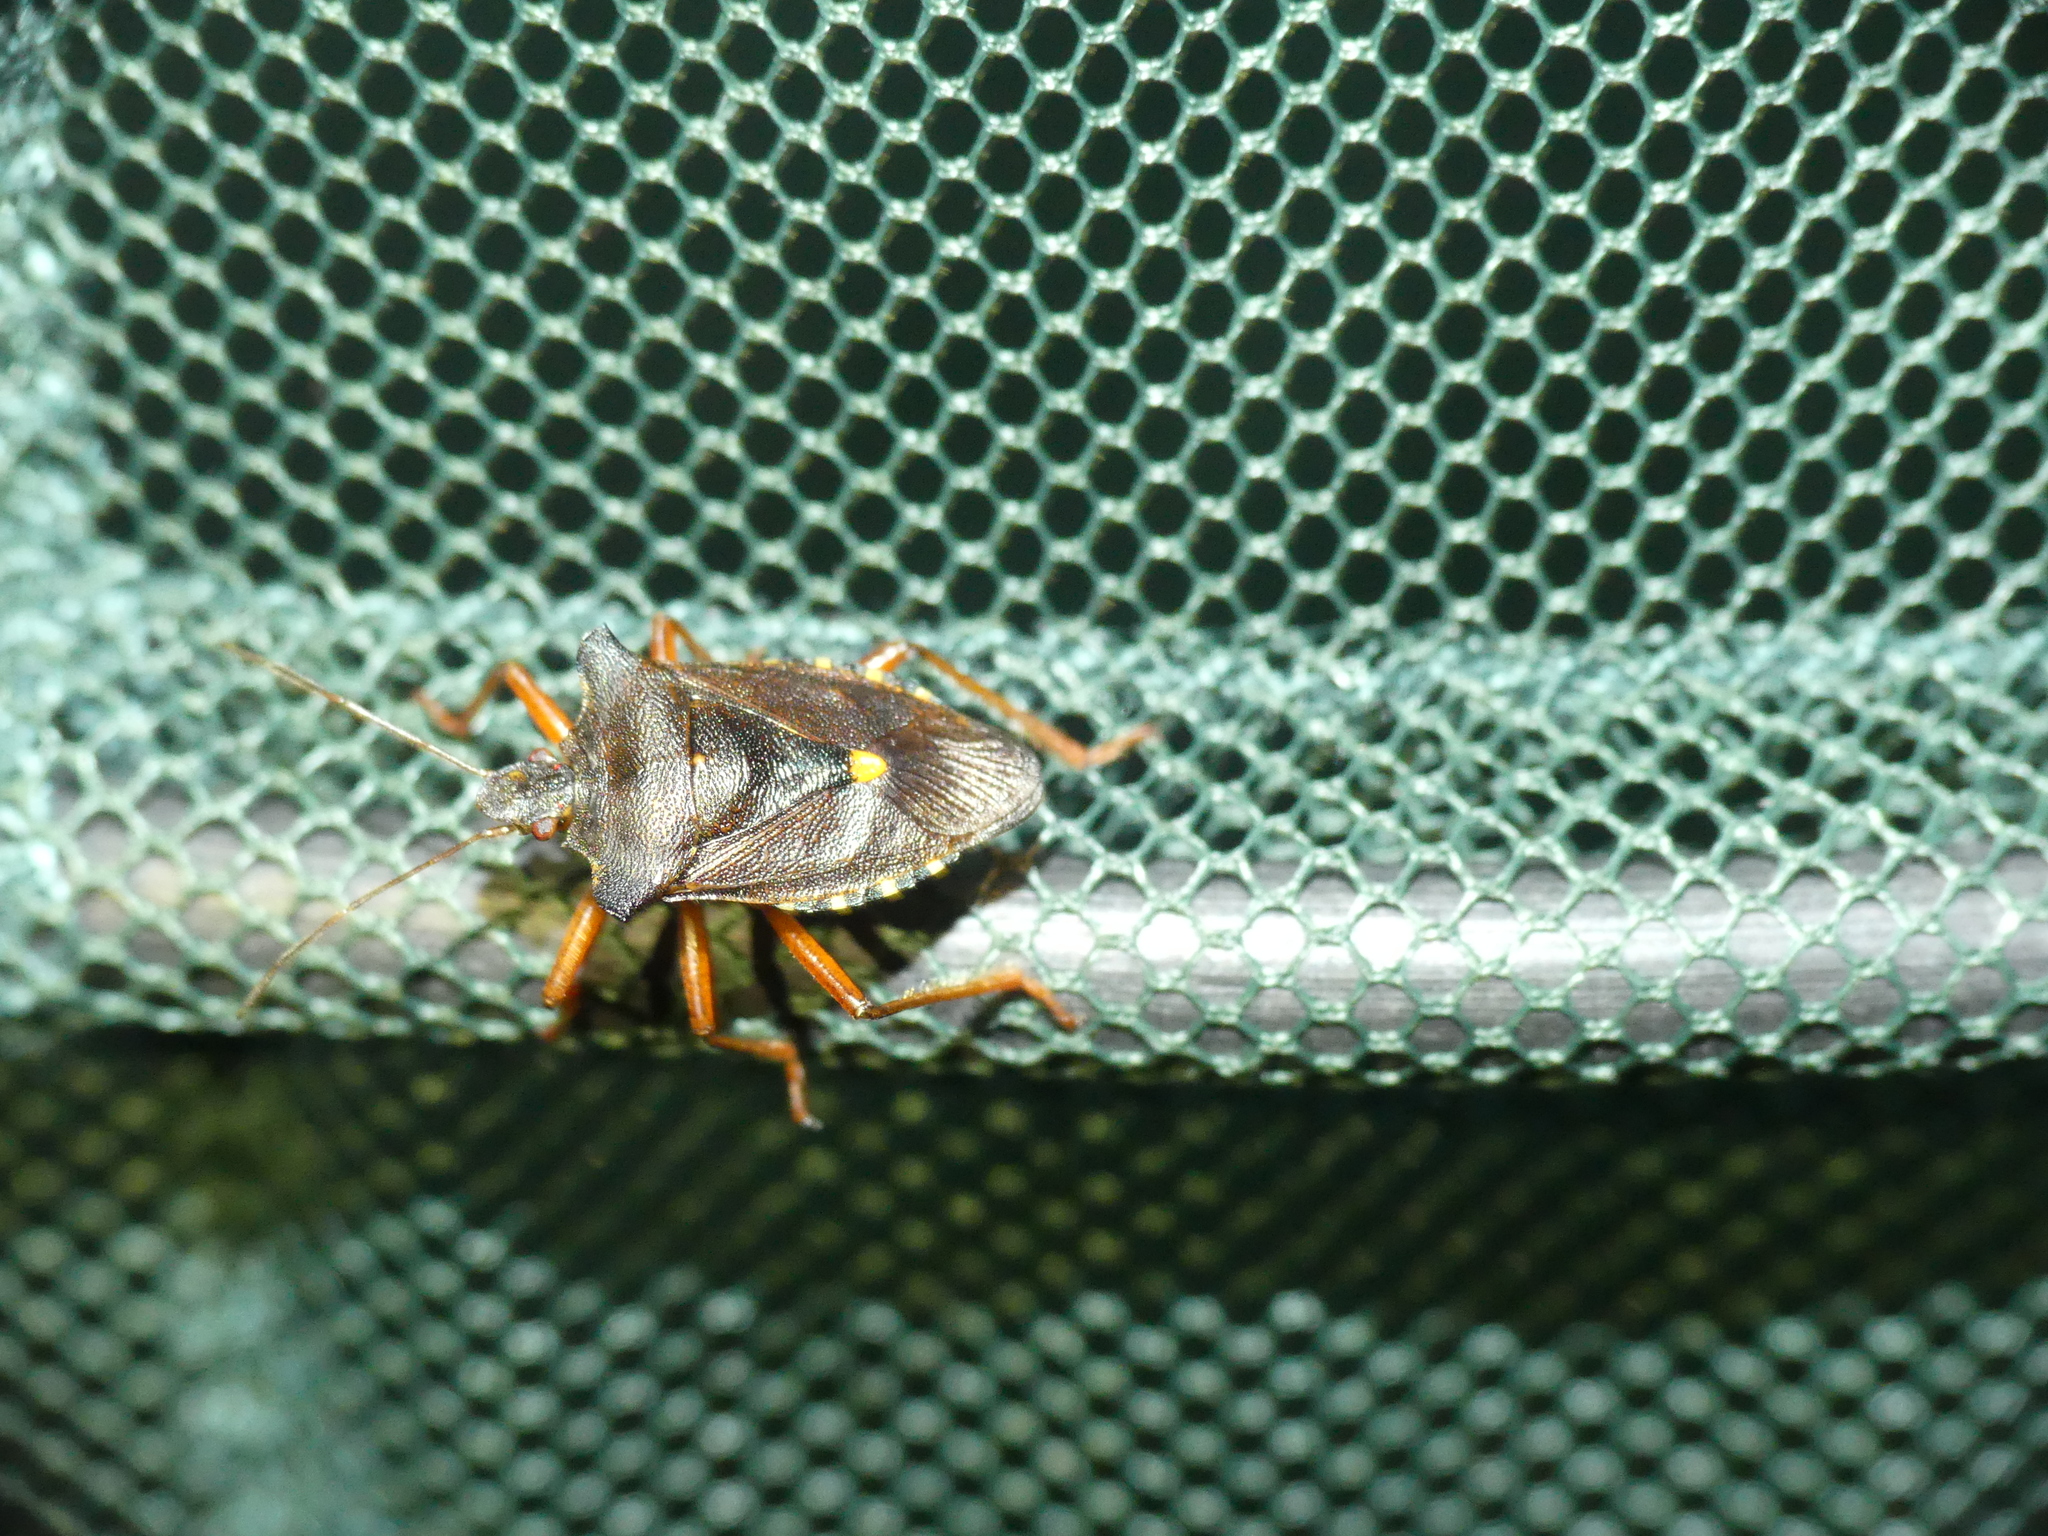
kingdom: Animalia
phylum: Arthropoda
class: Insecta
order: Hemiptera
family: Pentatomidae
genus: Pentatoma
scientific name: Pentatoma rufipes
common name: Forest bug
